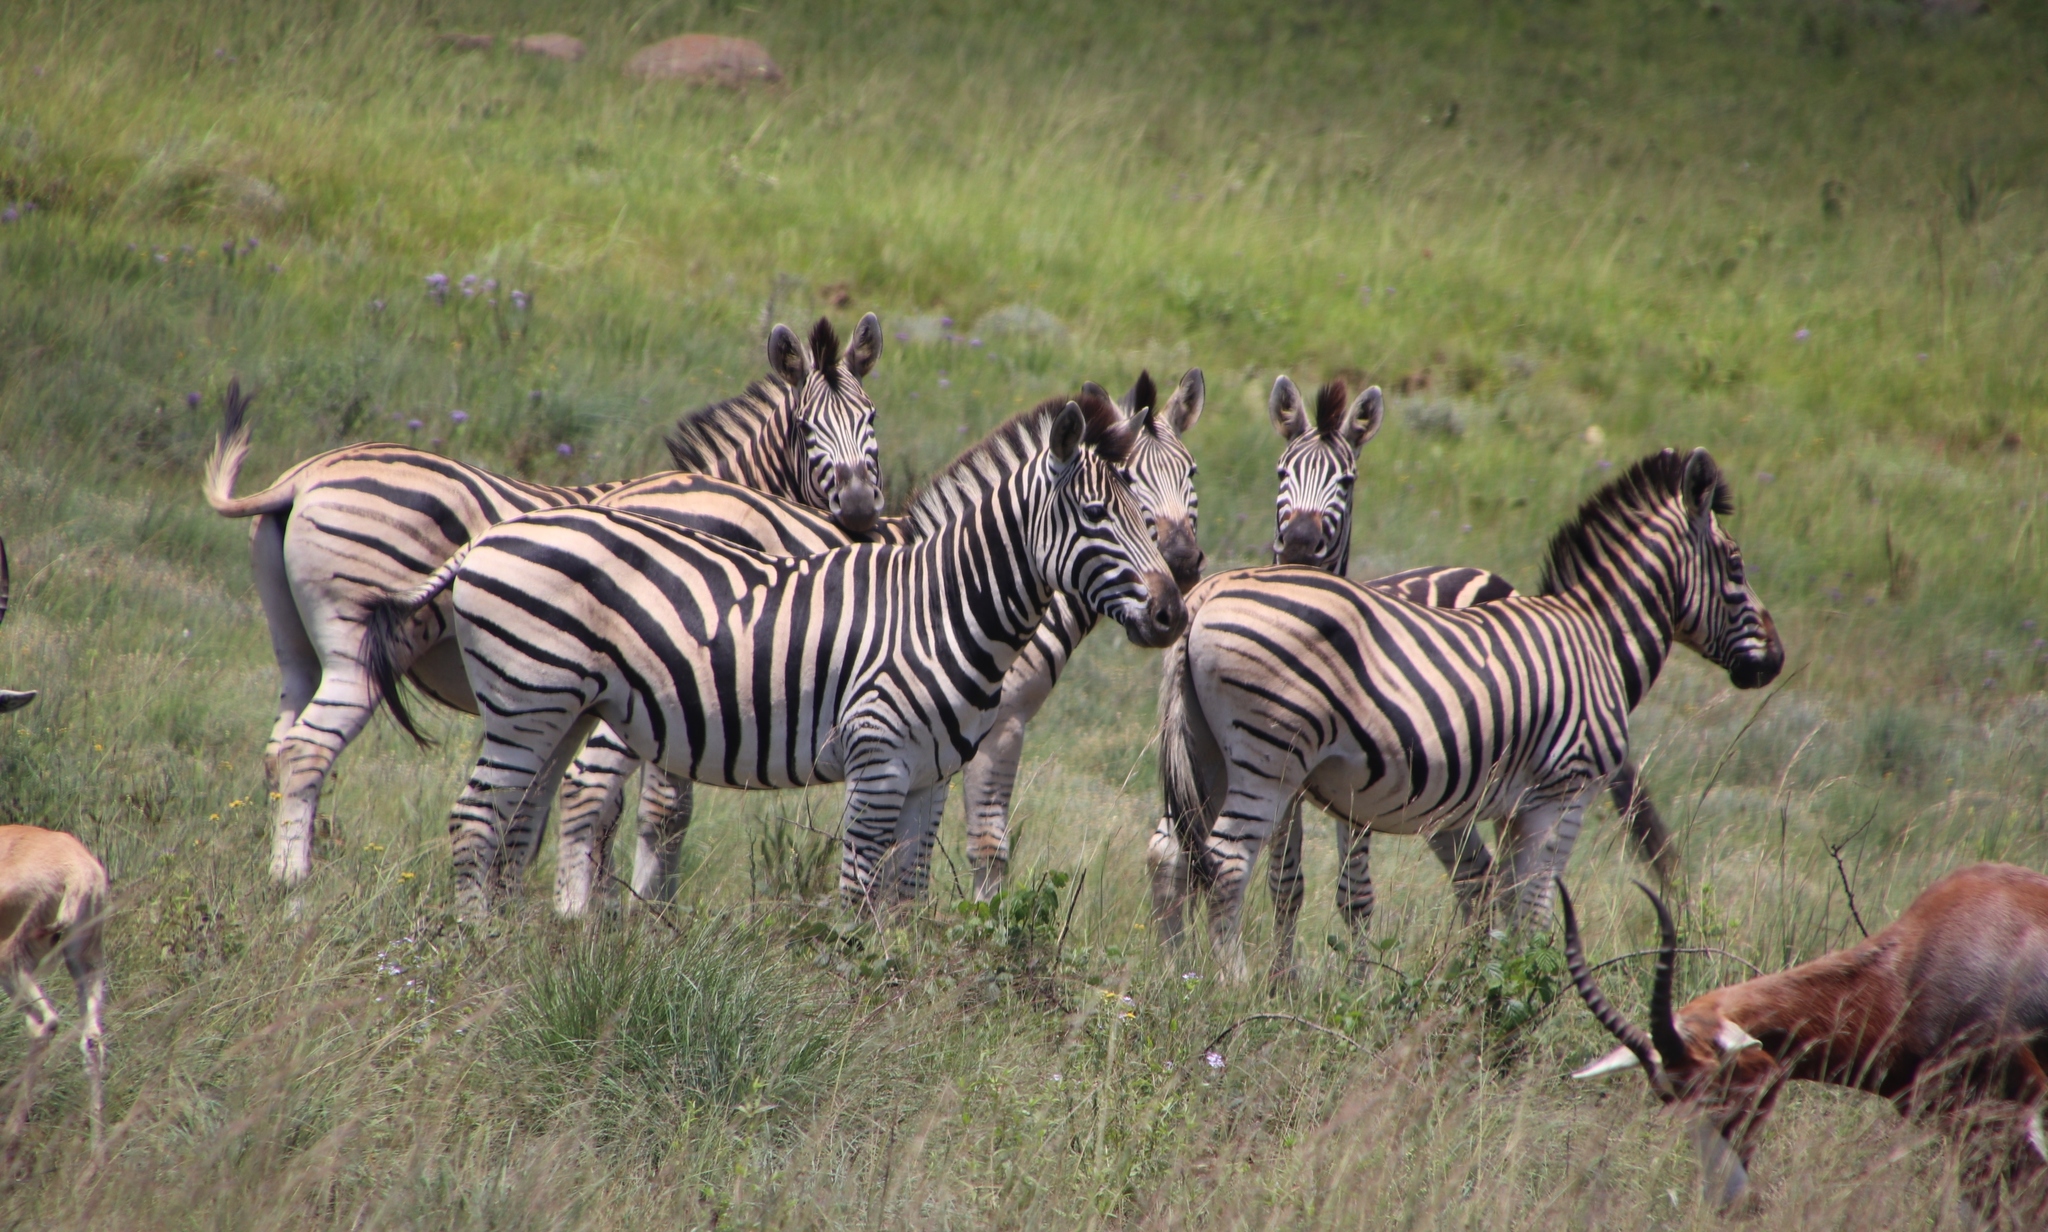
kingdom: Animalia
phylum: Chordata
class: Mammalia
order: Perissodactyla
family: Equidae
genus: Equus
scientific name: Equus quagga
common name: Plains zebra
